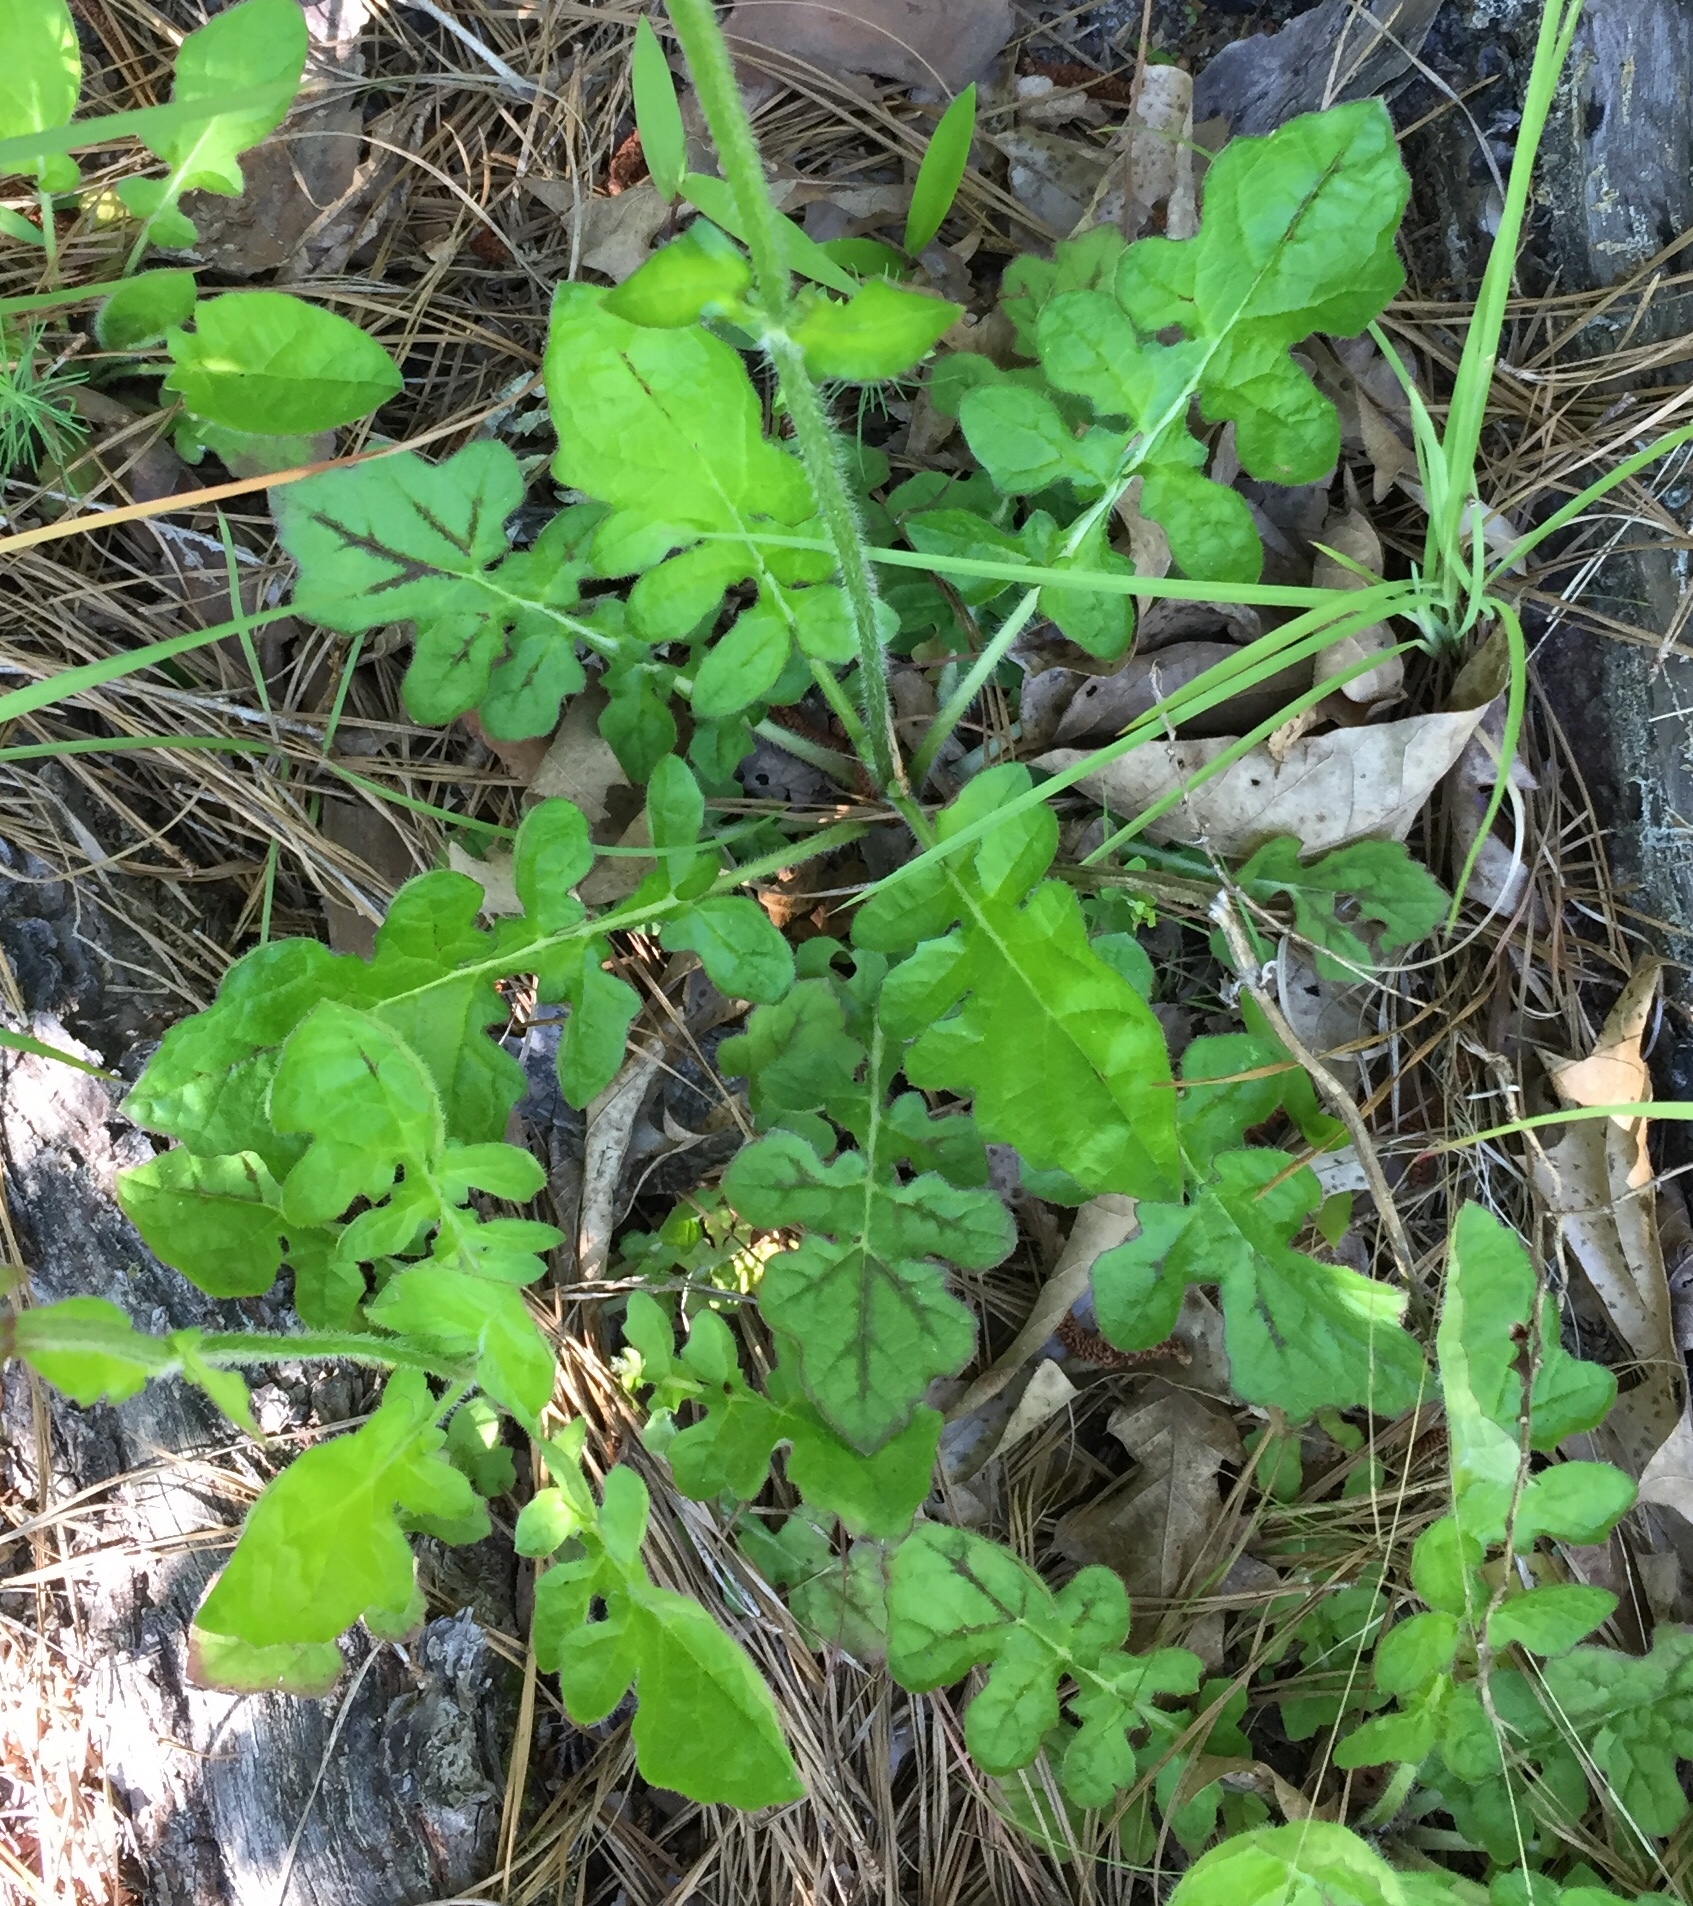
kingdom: Plantae
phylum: Tracheophyta
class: Magnoliopsida
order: Lamiales
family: Lamiaceae
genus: Salvia
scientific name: Salvia lyrata
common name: Cancerweed
